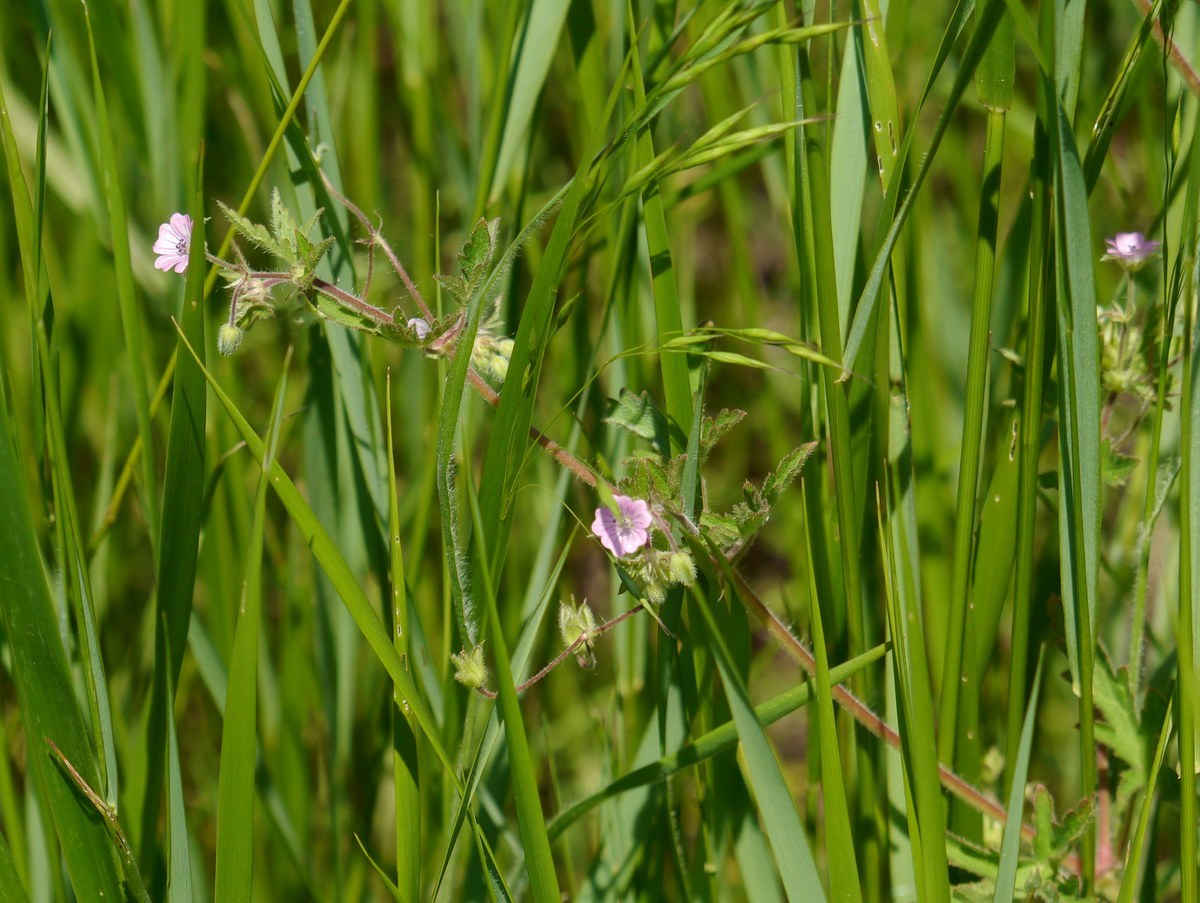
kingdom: Plantae
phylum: Tracheophyta
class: Magnoliopsida
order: Geraniales
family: Geraniaceae
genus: Geranium
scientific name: Geranium divaricatum
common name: Spreading crane's-bill
